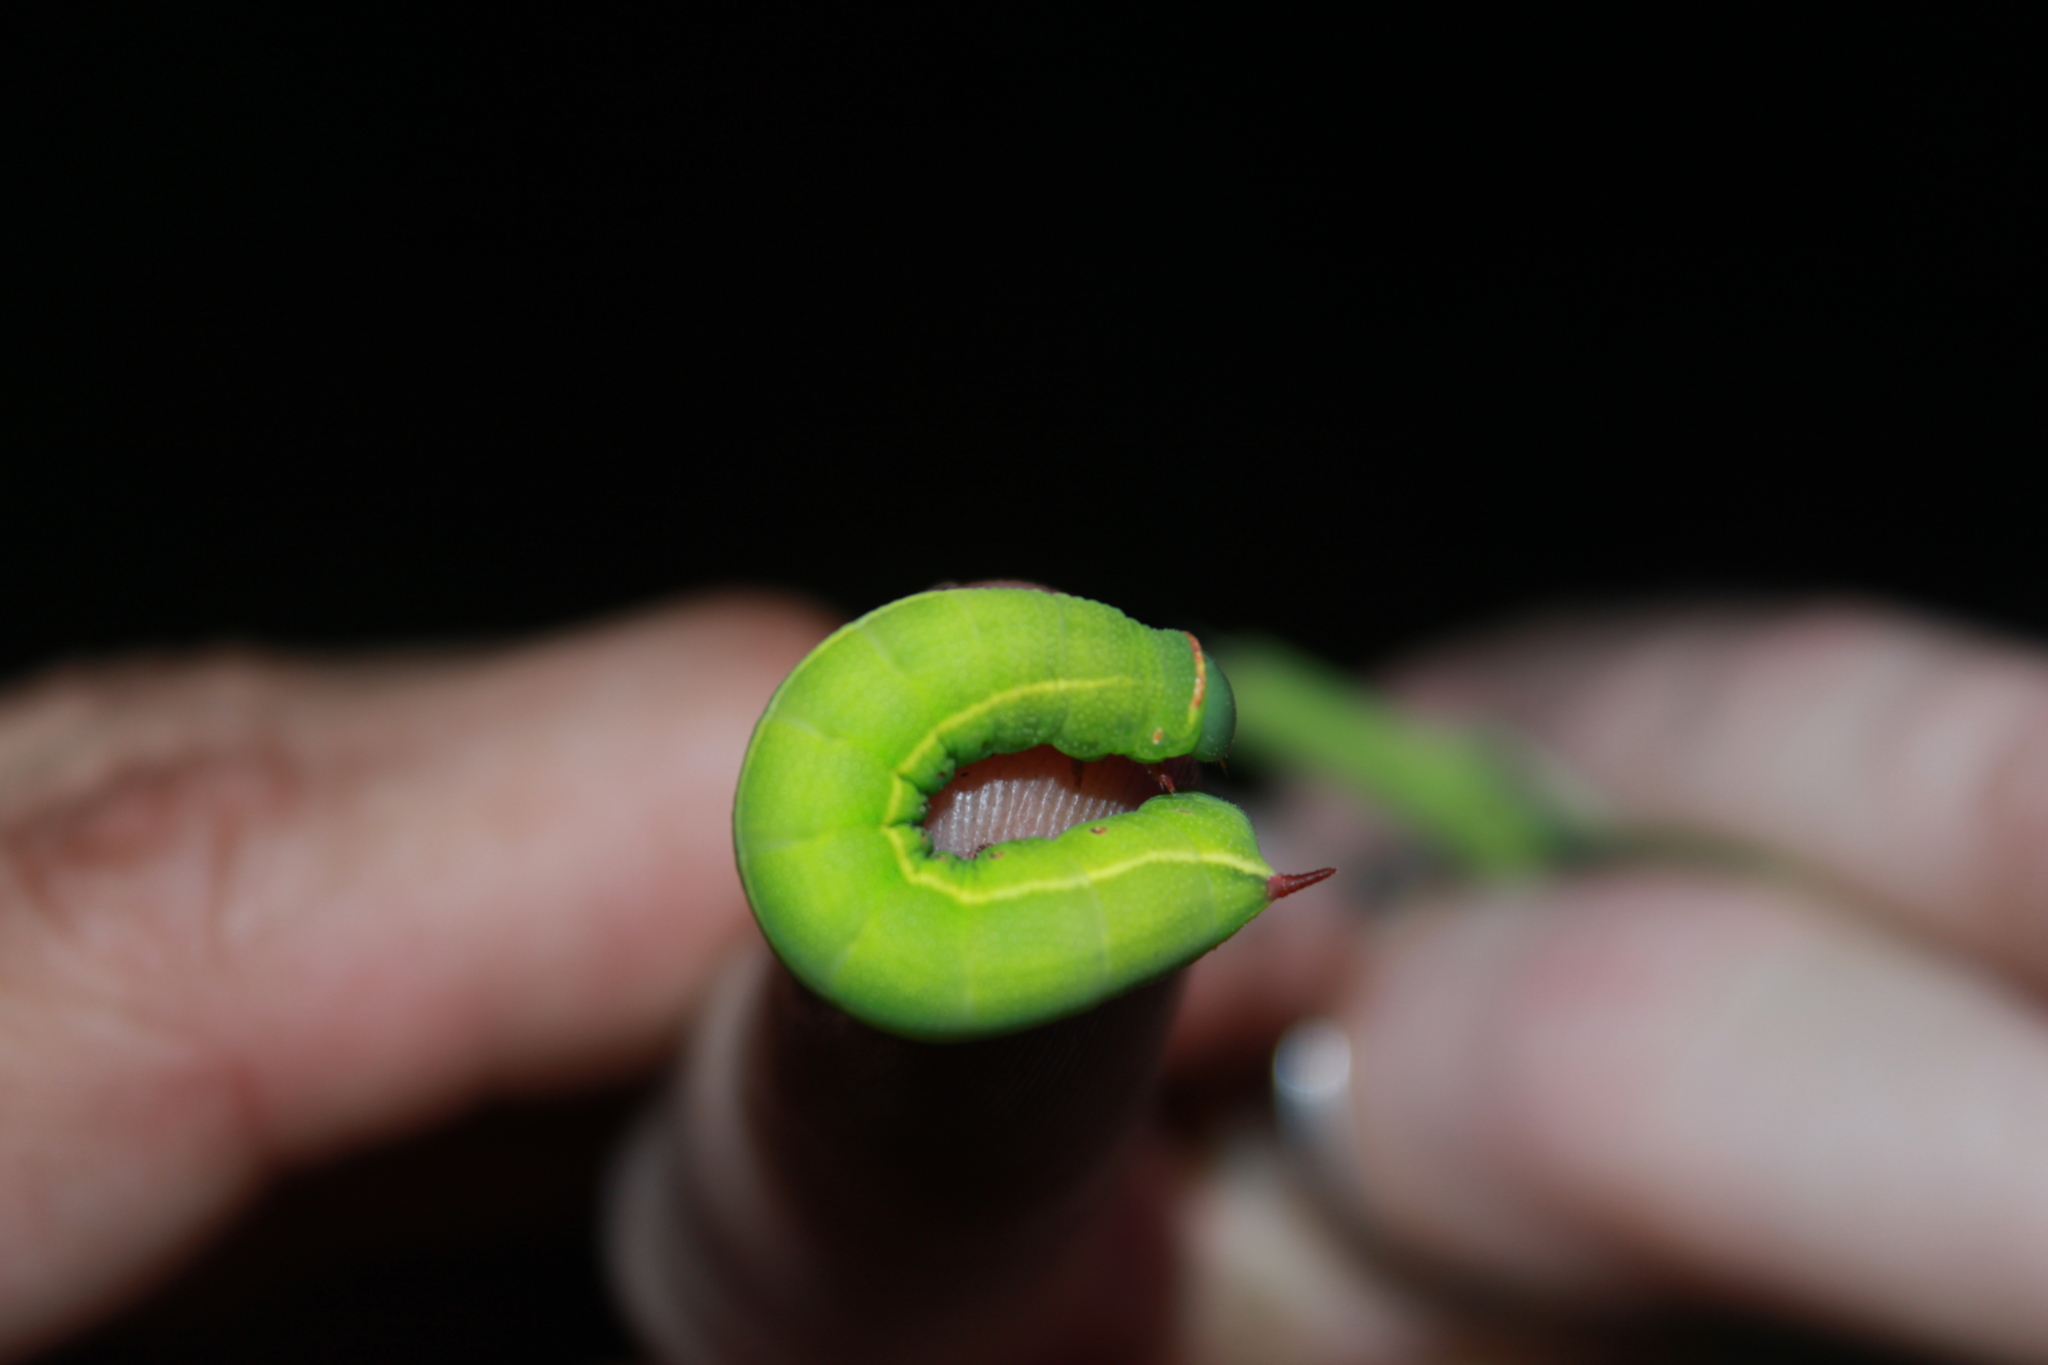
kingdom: Animalia
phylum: Arthropoda
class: Insecta
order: Lepidoptera
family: Sphingidae
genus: Hemaris
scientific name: Hemaris gracilis
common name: Graceful clearwing
